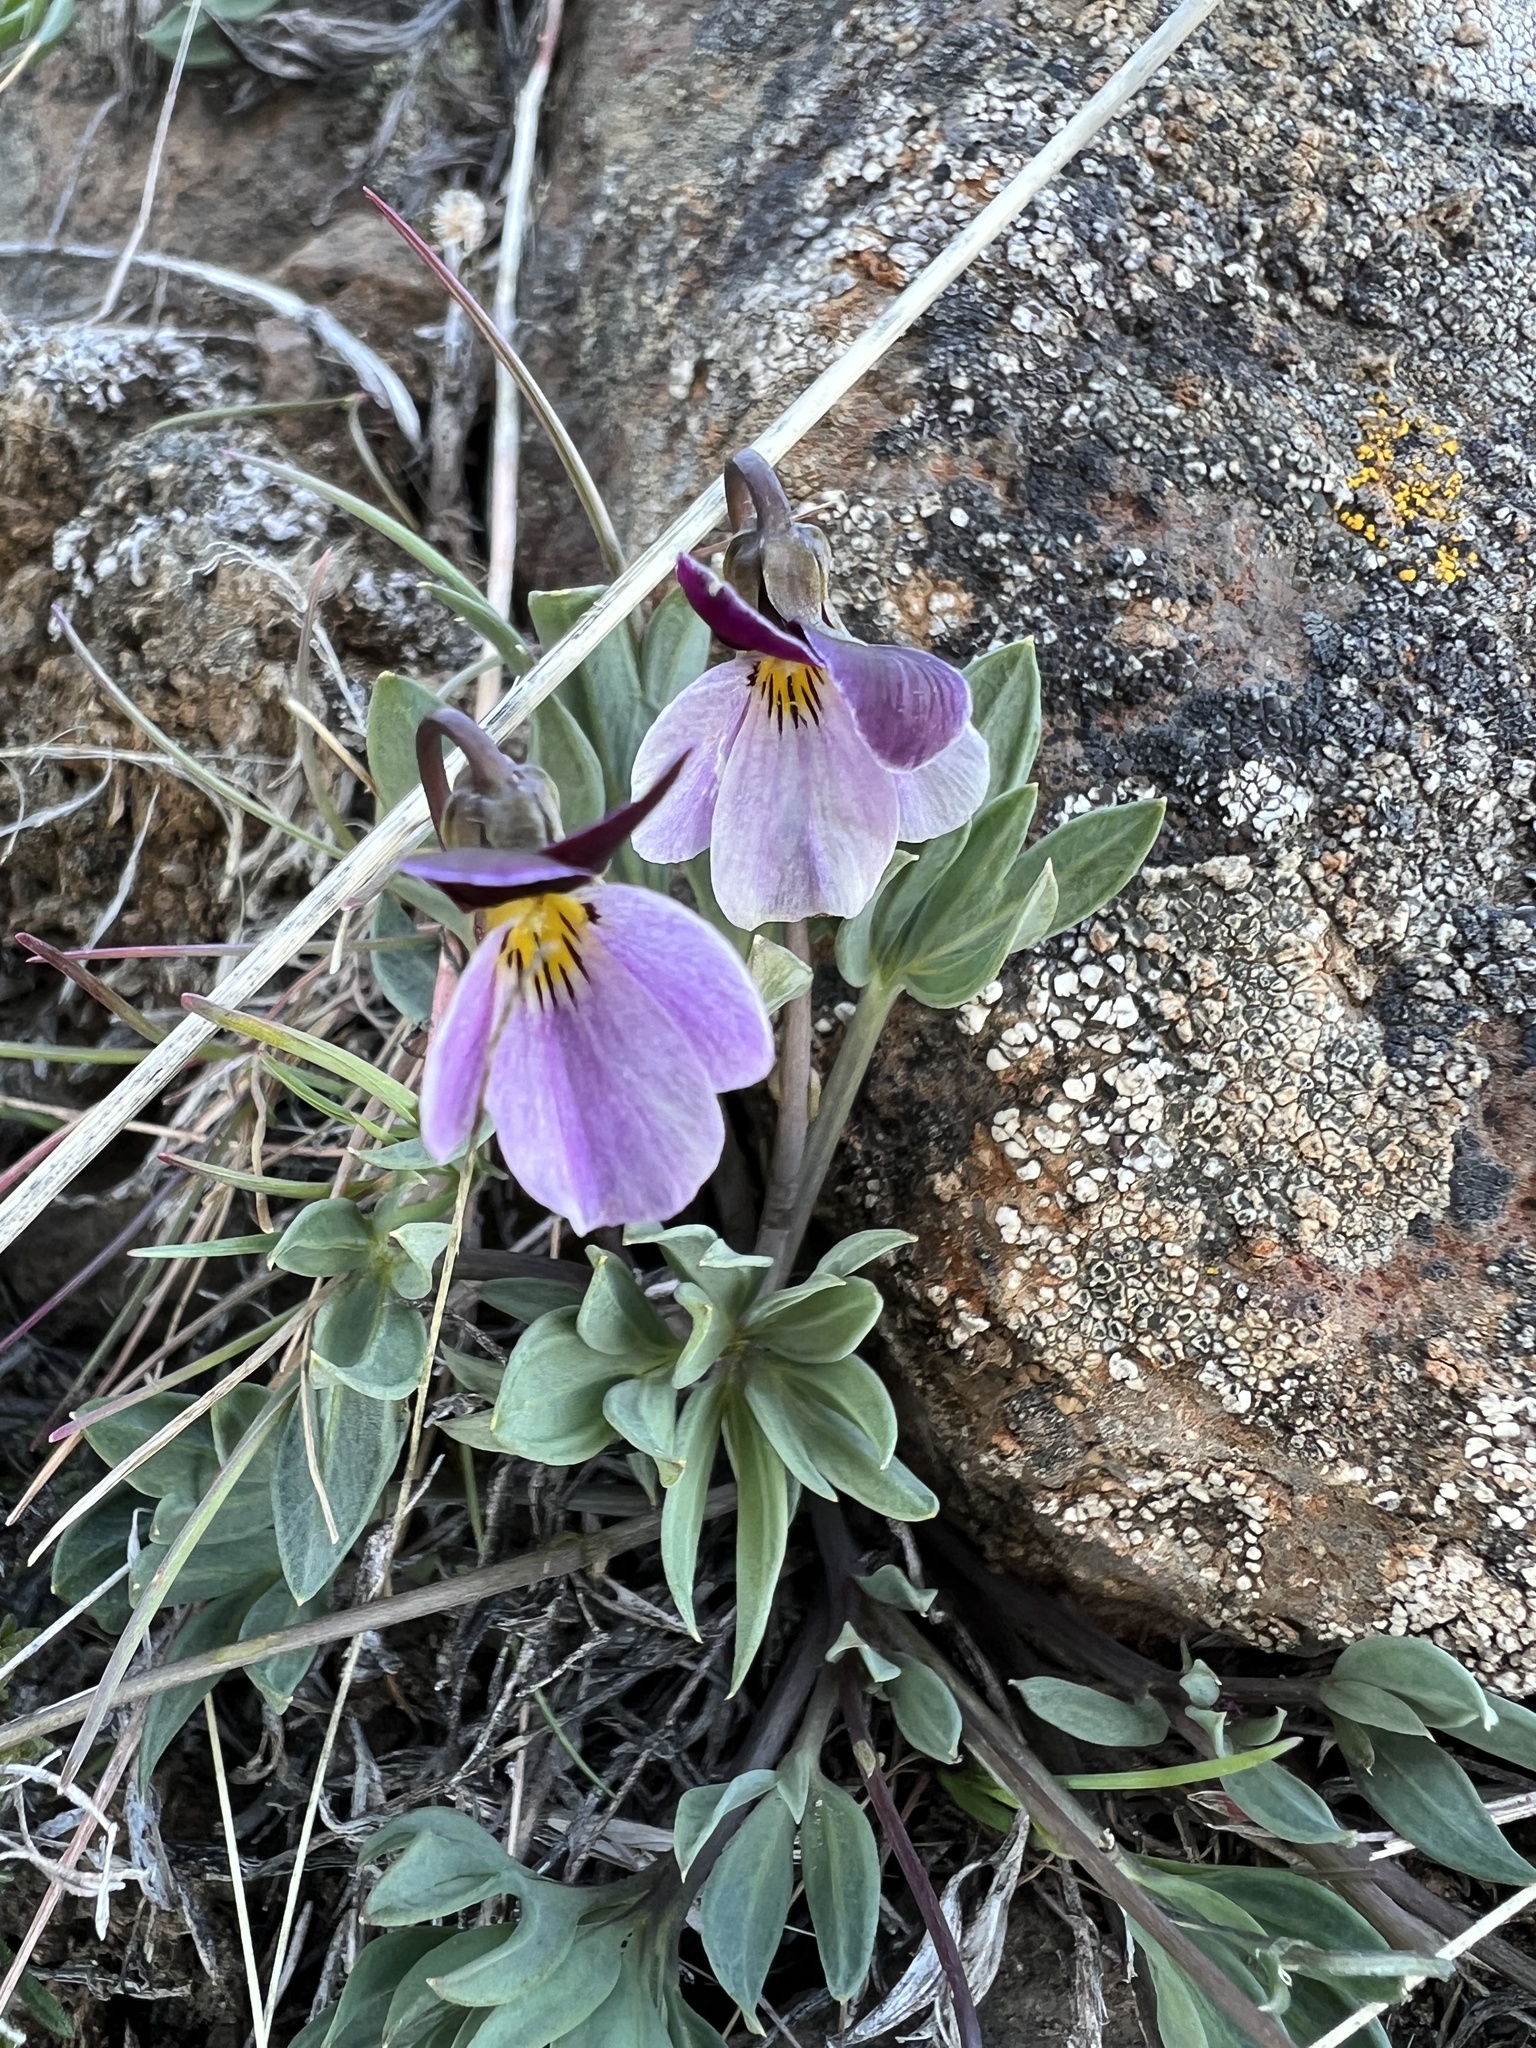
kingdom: Plantae
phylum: Tracheophyta
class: Magnoliopsida
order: Malpighiales
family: Violaceae
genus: Viola
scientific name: Viola trinervata
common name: Sagebrush violet
